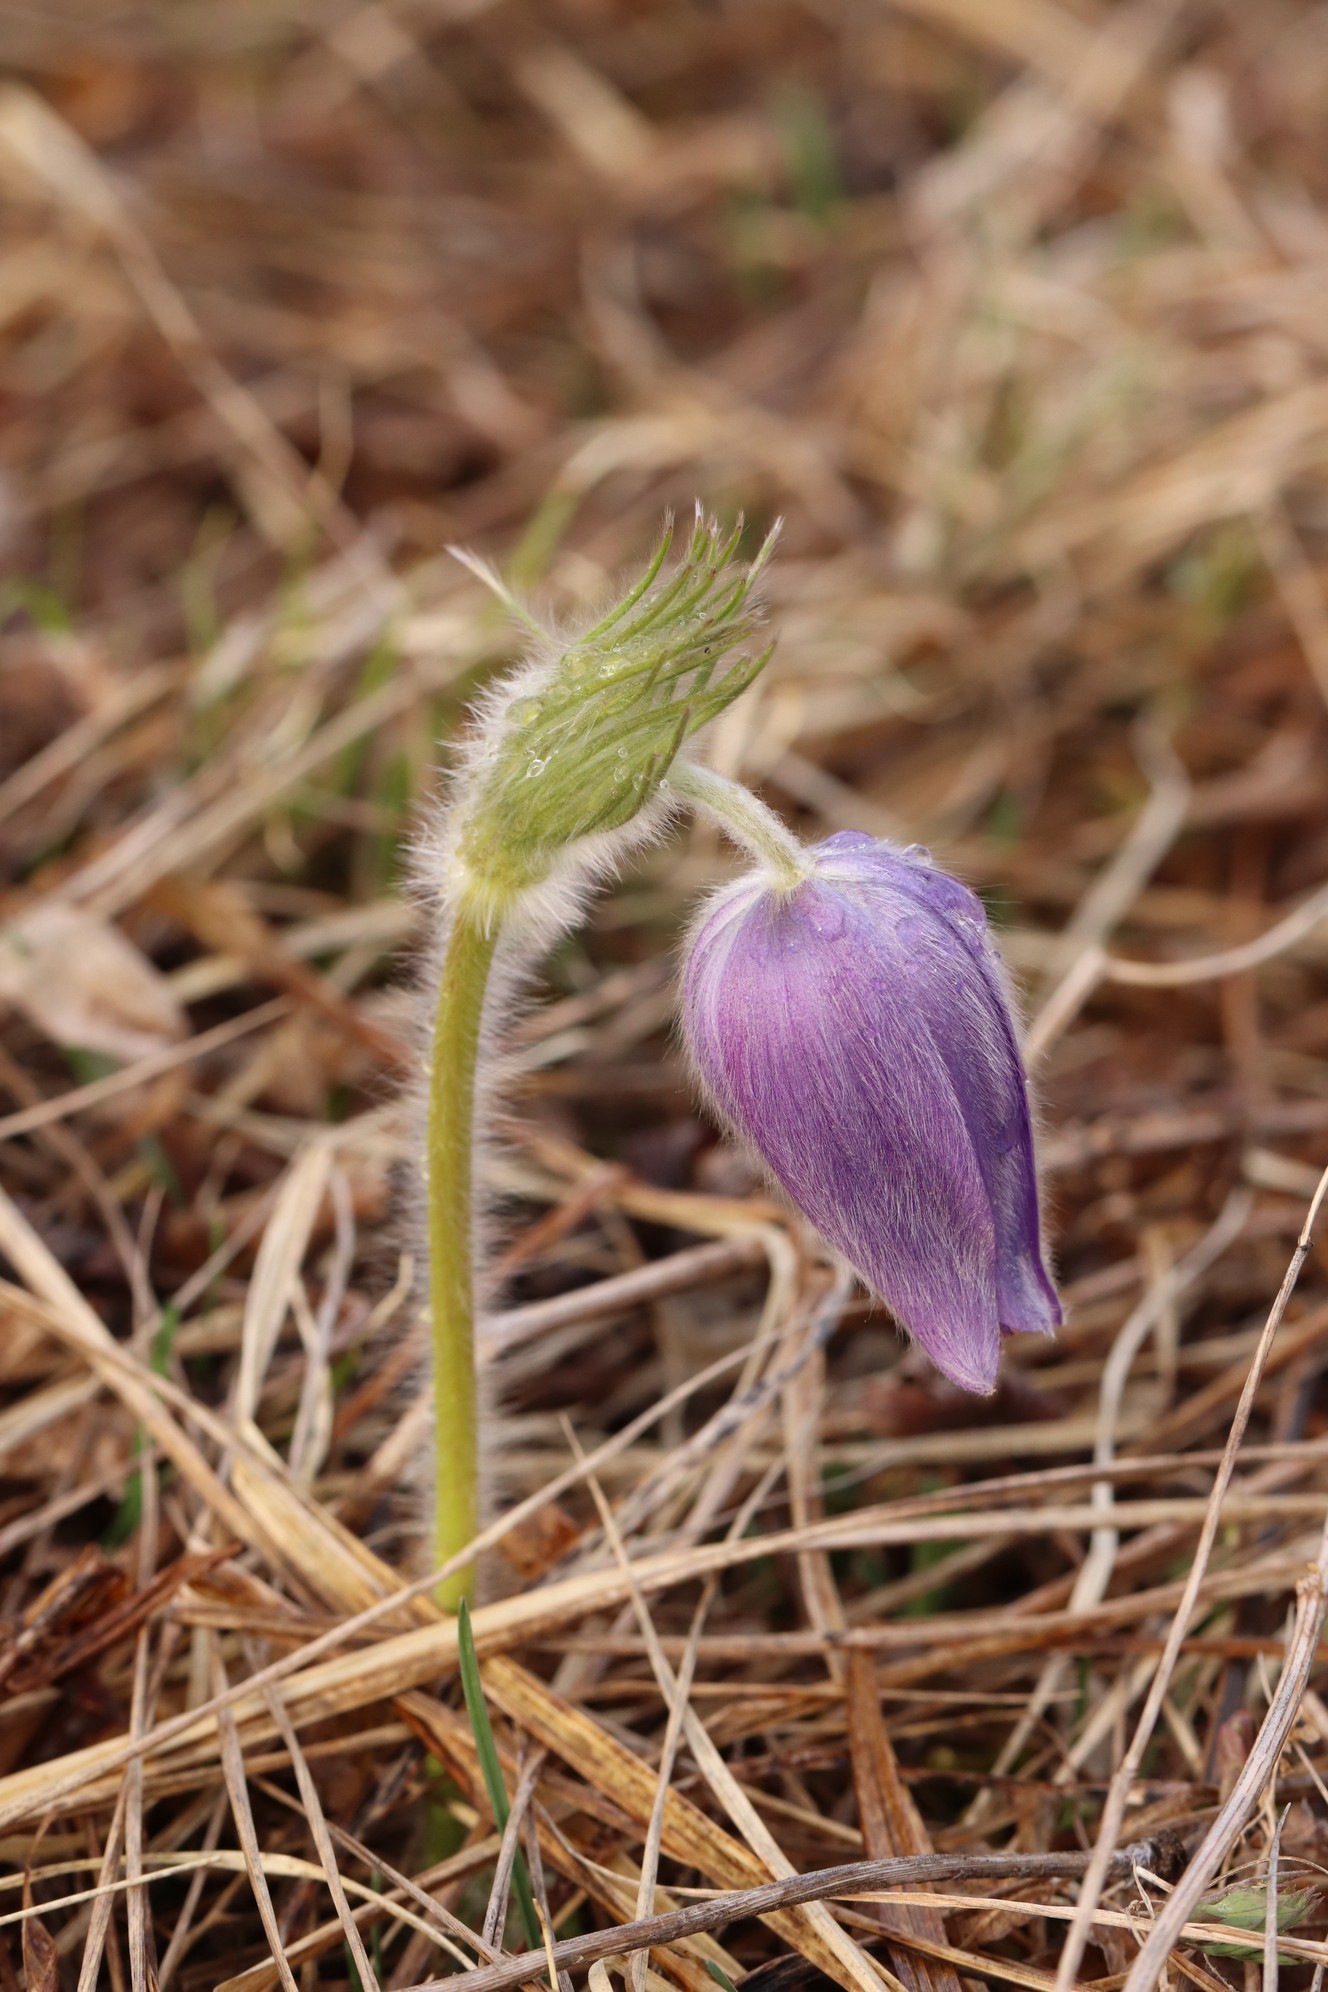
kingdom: Plantae
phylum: Tracheophyta
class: Magnoliopsida
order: Ranunculales
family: Ranunculaceae
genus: Pulsatilla
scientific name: Pulsatilla patens
